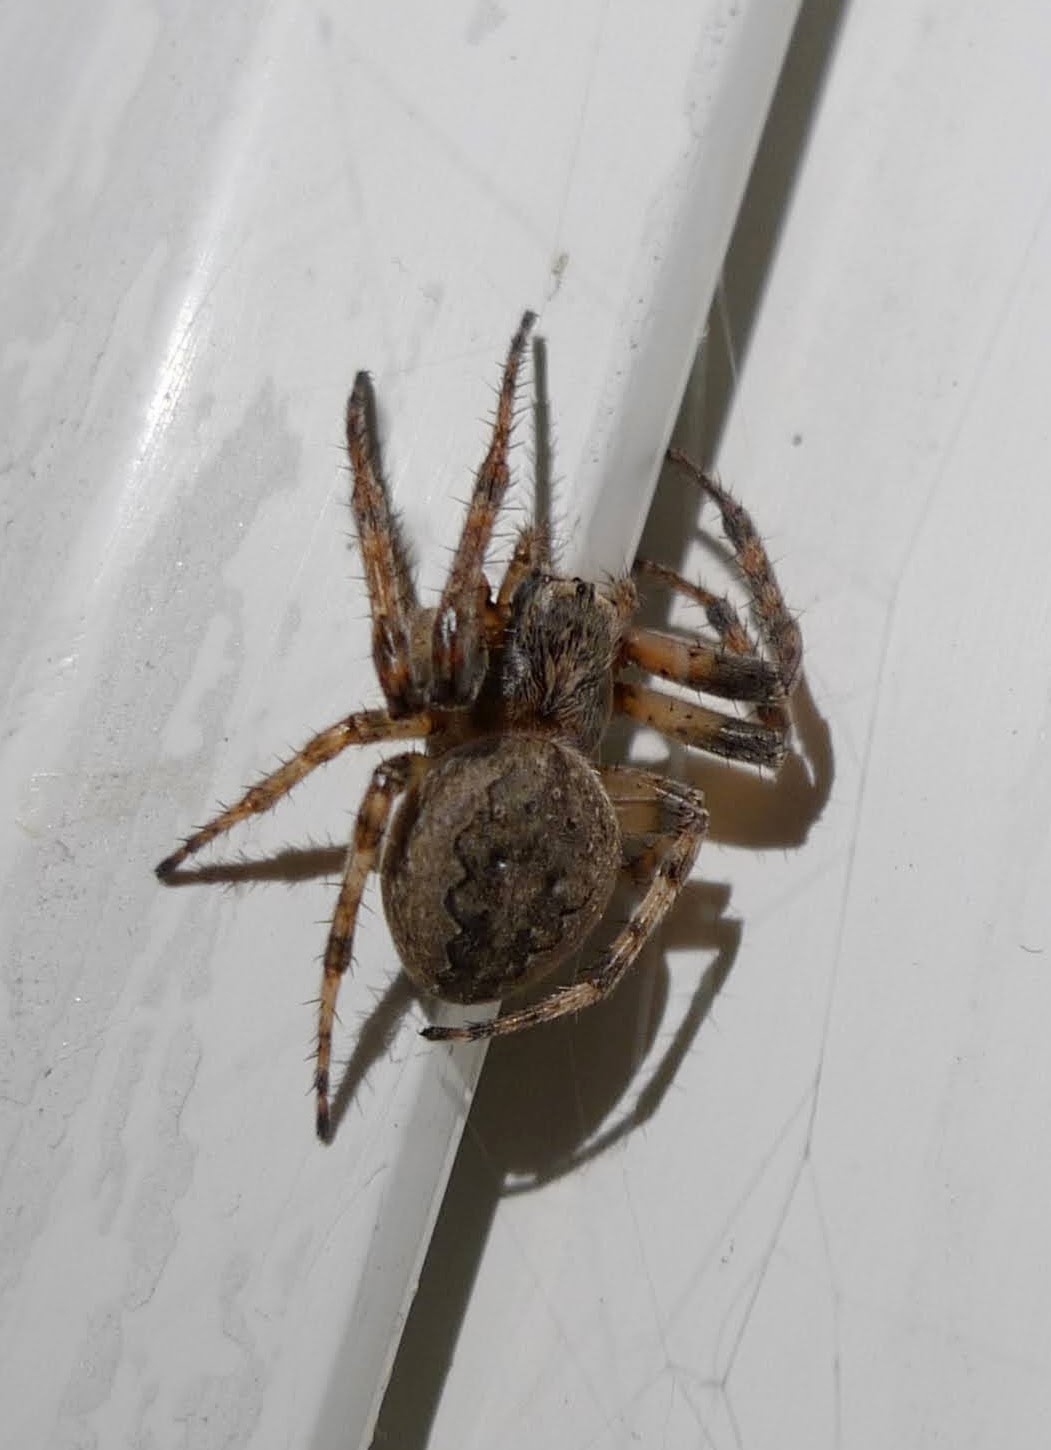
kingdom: Animalia
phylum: Arthropoda
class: Arachnida
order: Araneae
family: Araneidae
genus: Larinioides
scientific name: Larinioides ixobolus
